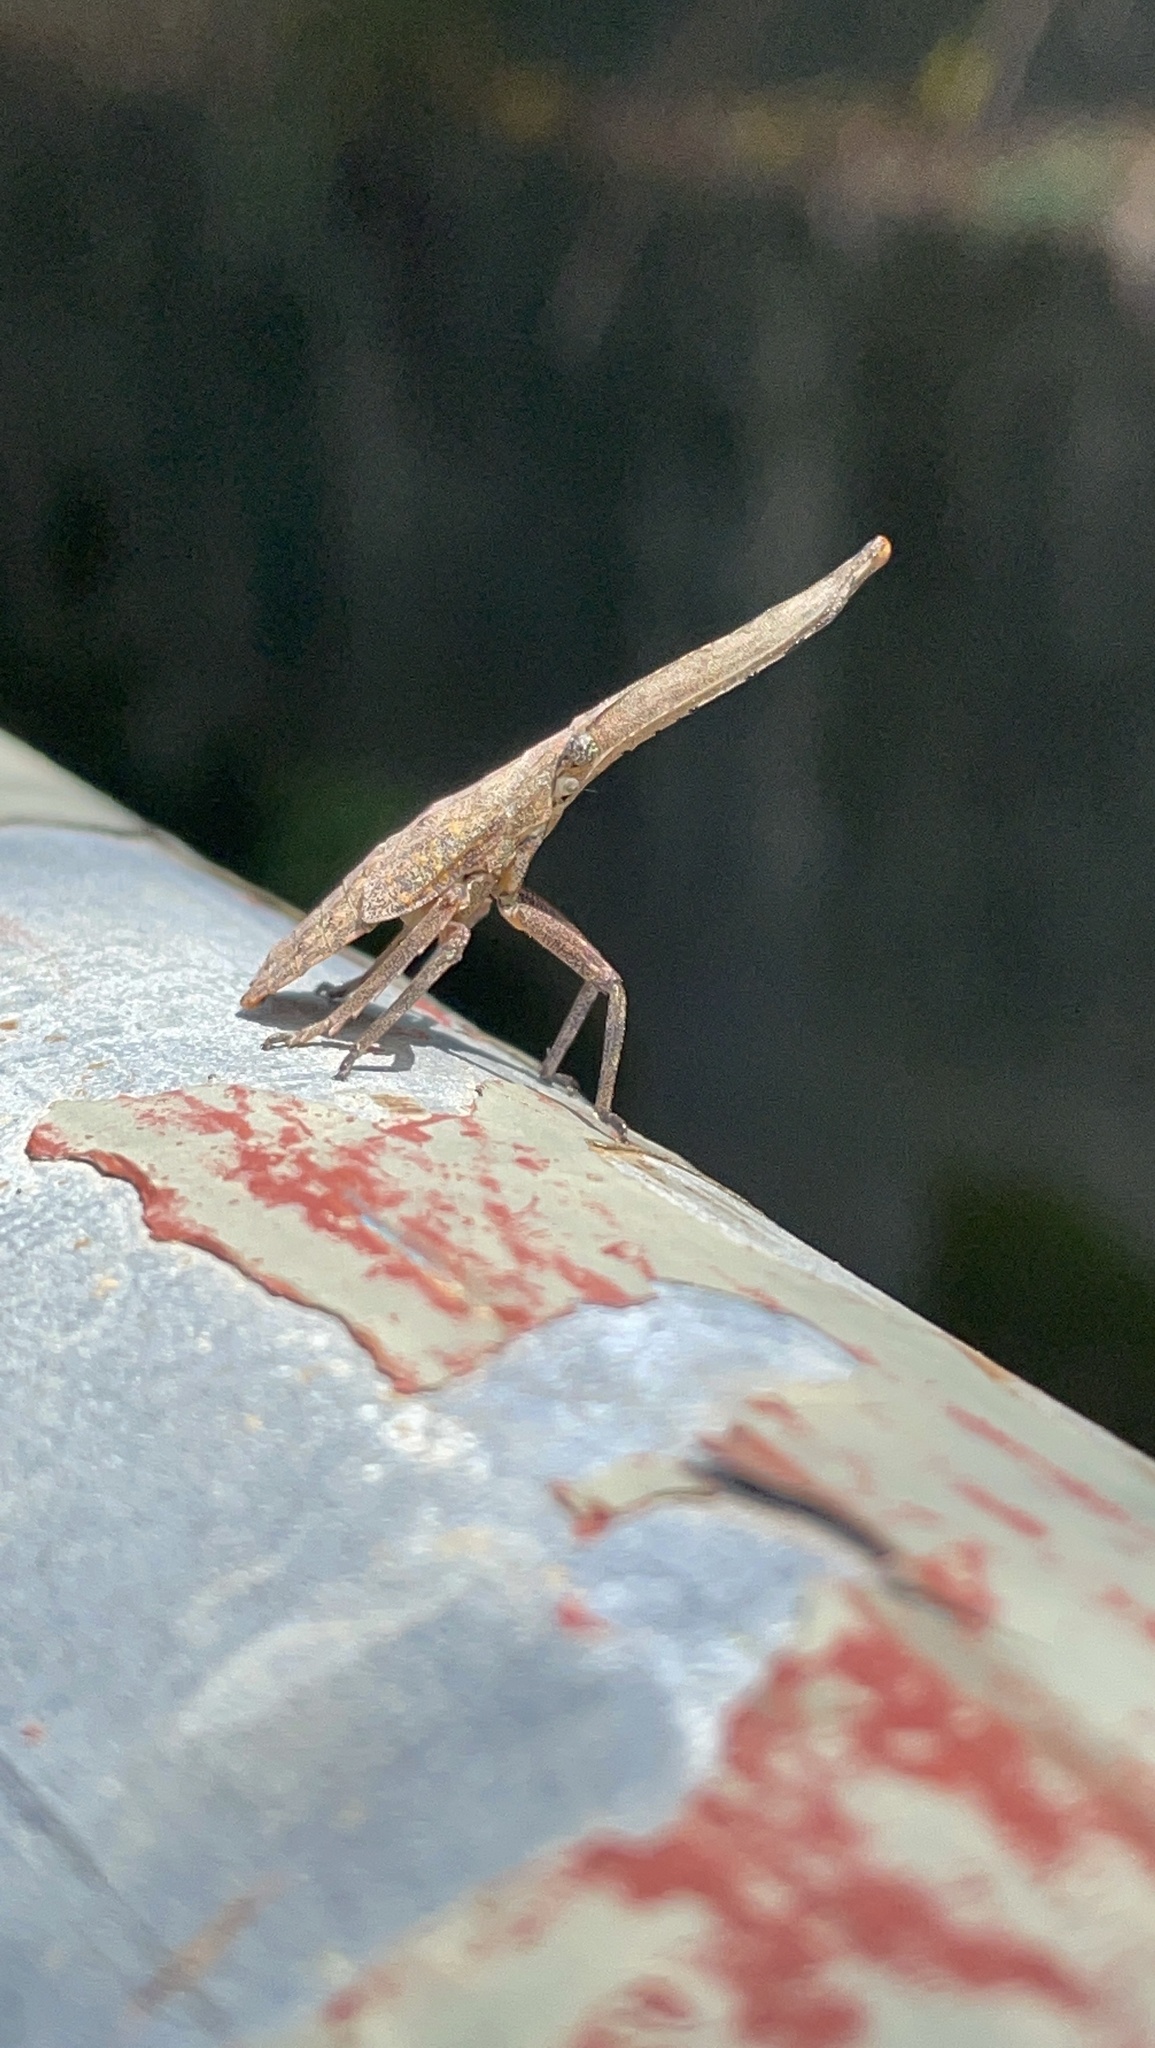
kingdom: Animalia
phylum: Arthropoda
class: Insecta
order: Hemiptera
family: Fulgoridae
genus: Pyrops
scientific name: Pyrops candelaria
